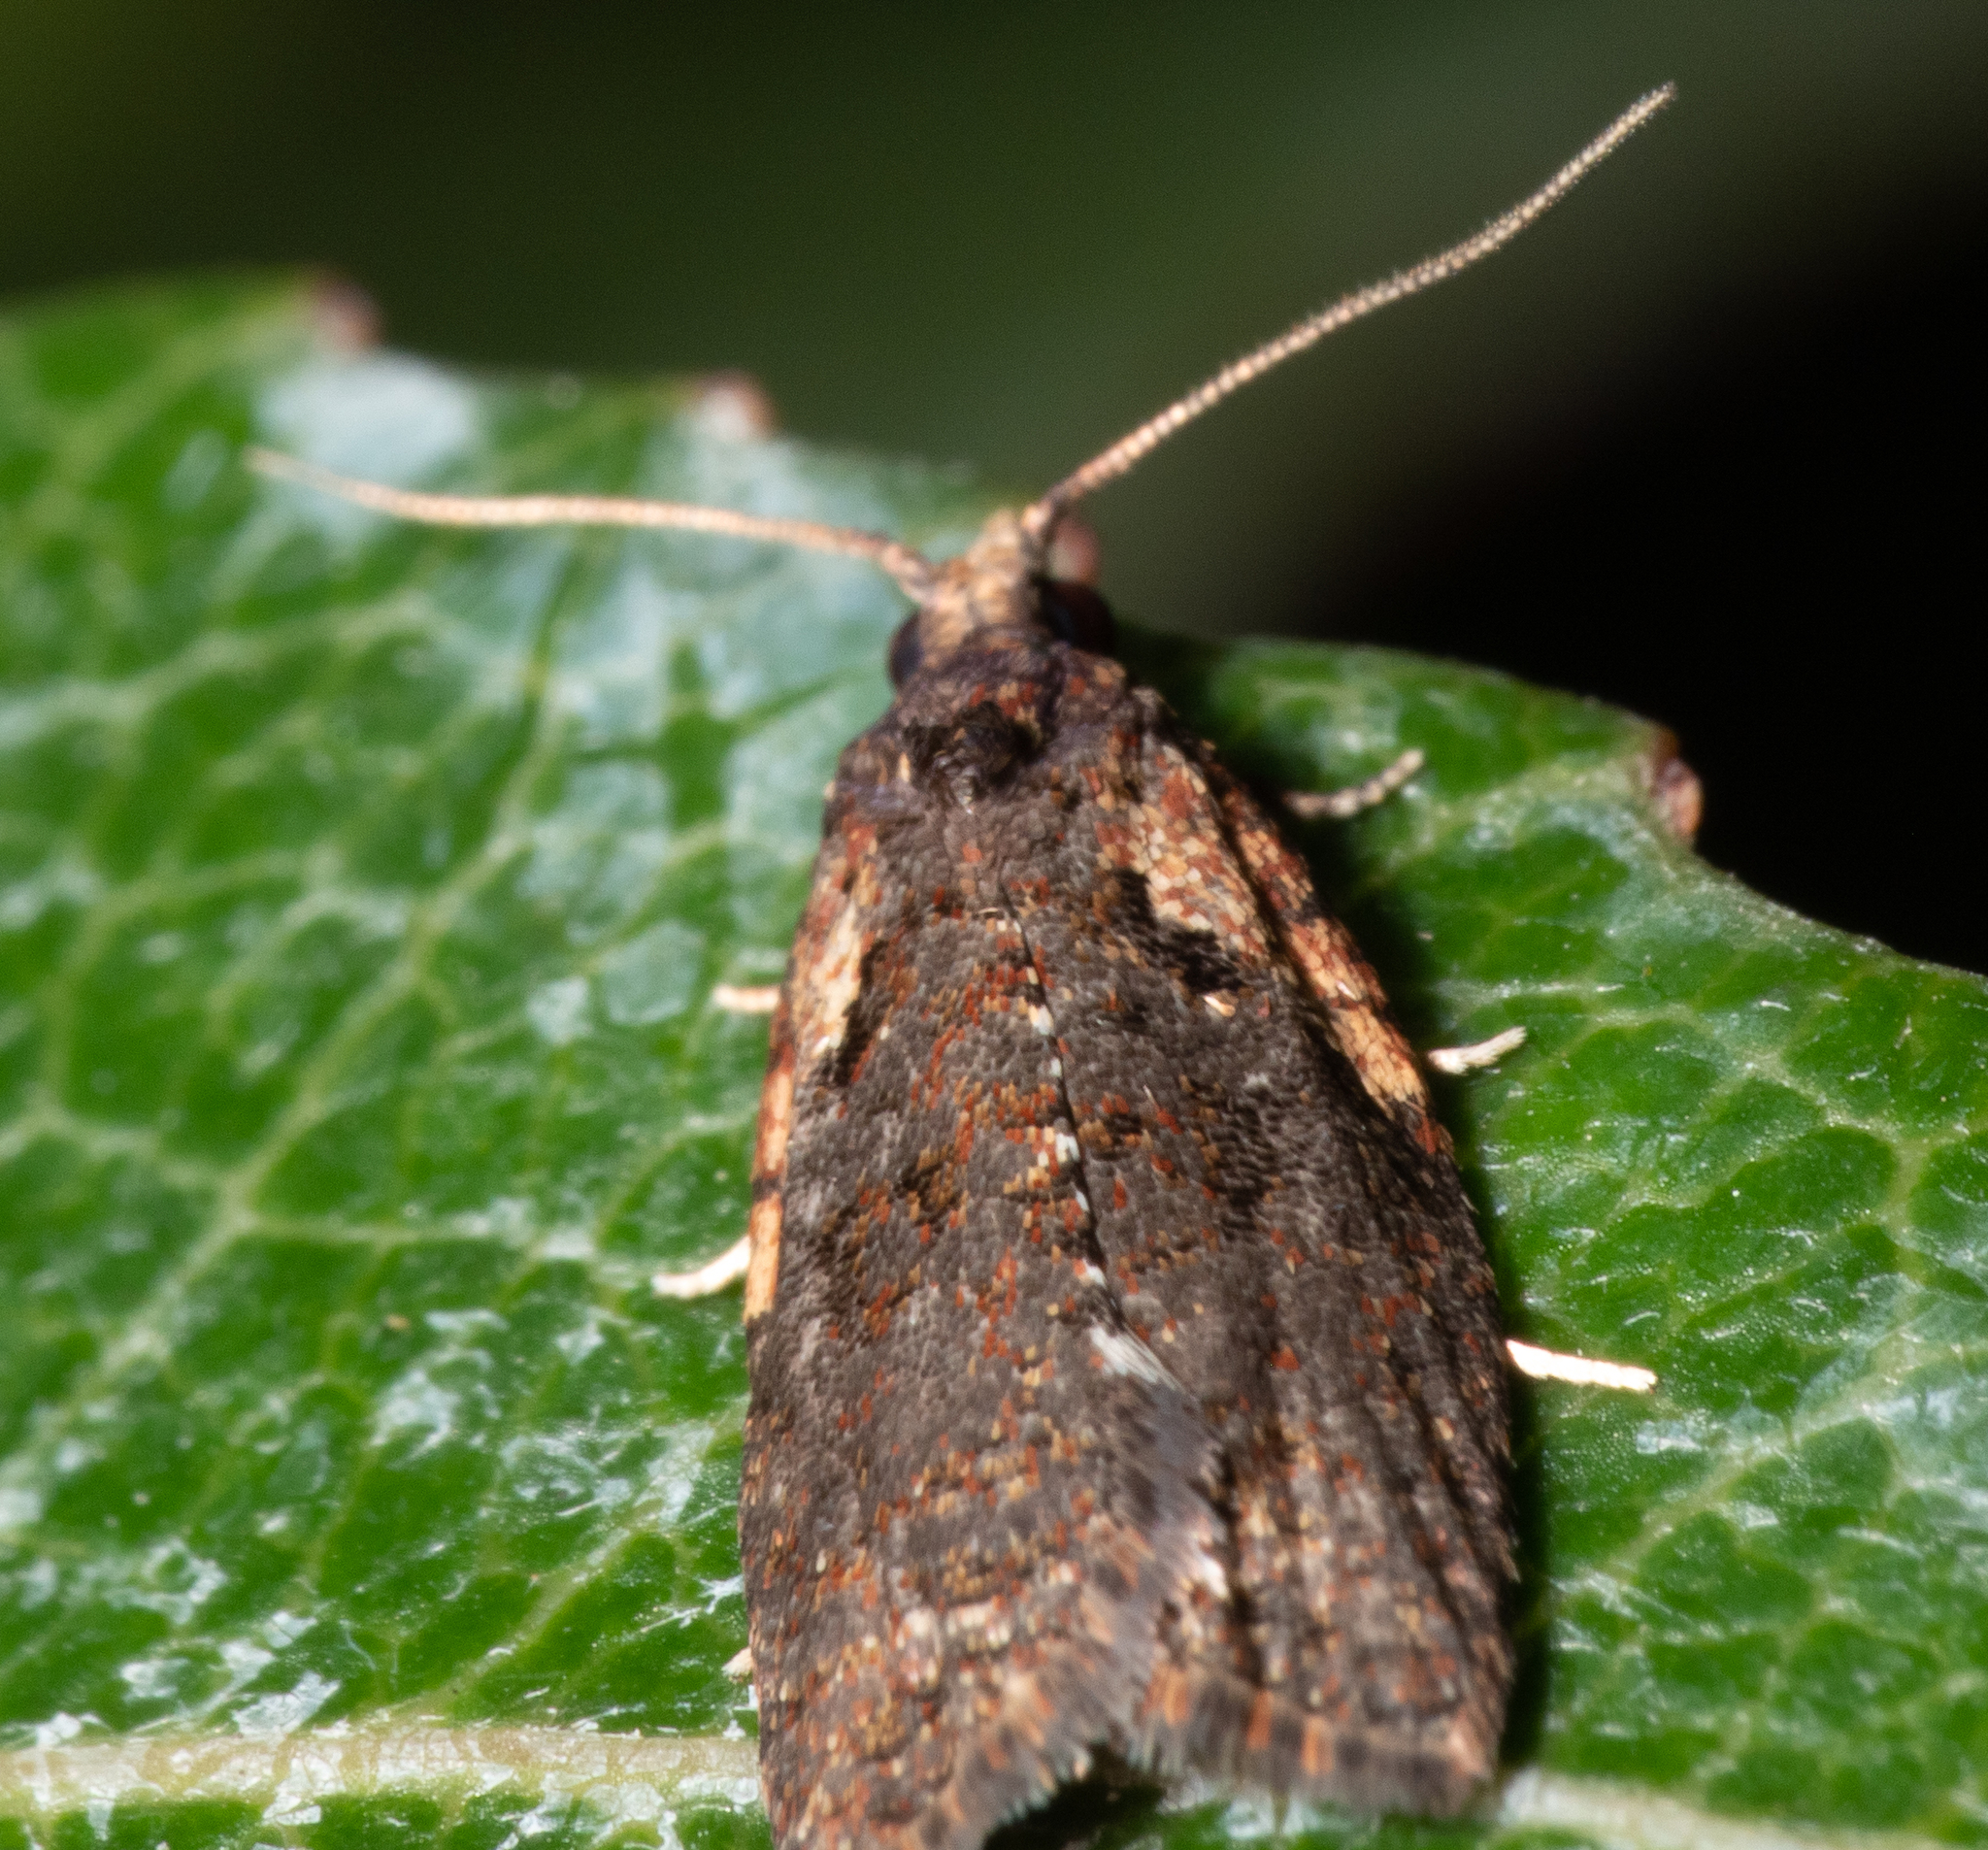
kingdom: Animalia
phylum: Arthropoda
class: Insecta
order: Lepidoptera
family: Tortricidae
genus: Capua
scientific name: Capua intractana
